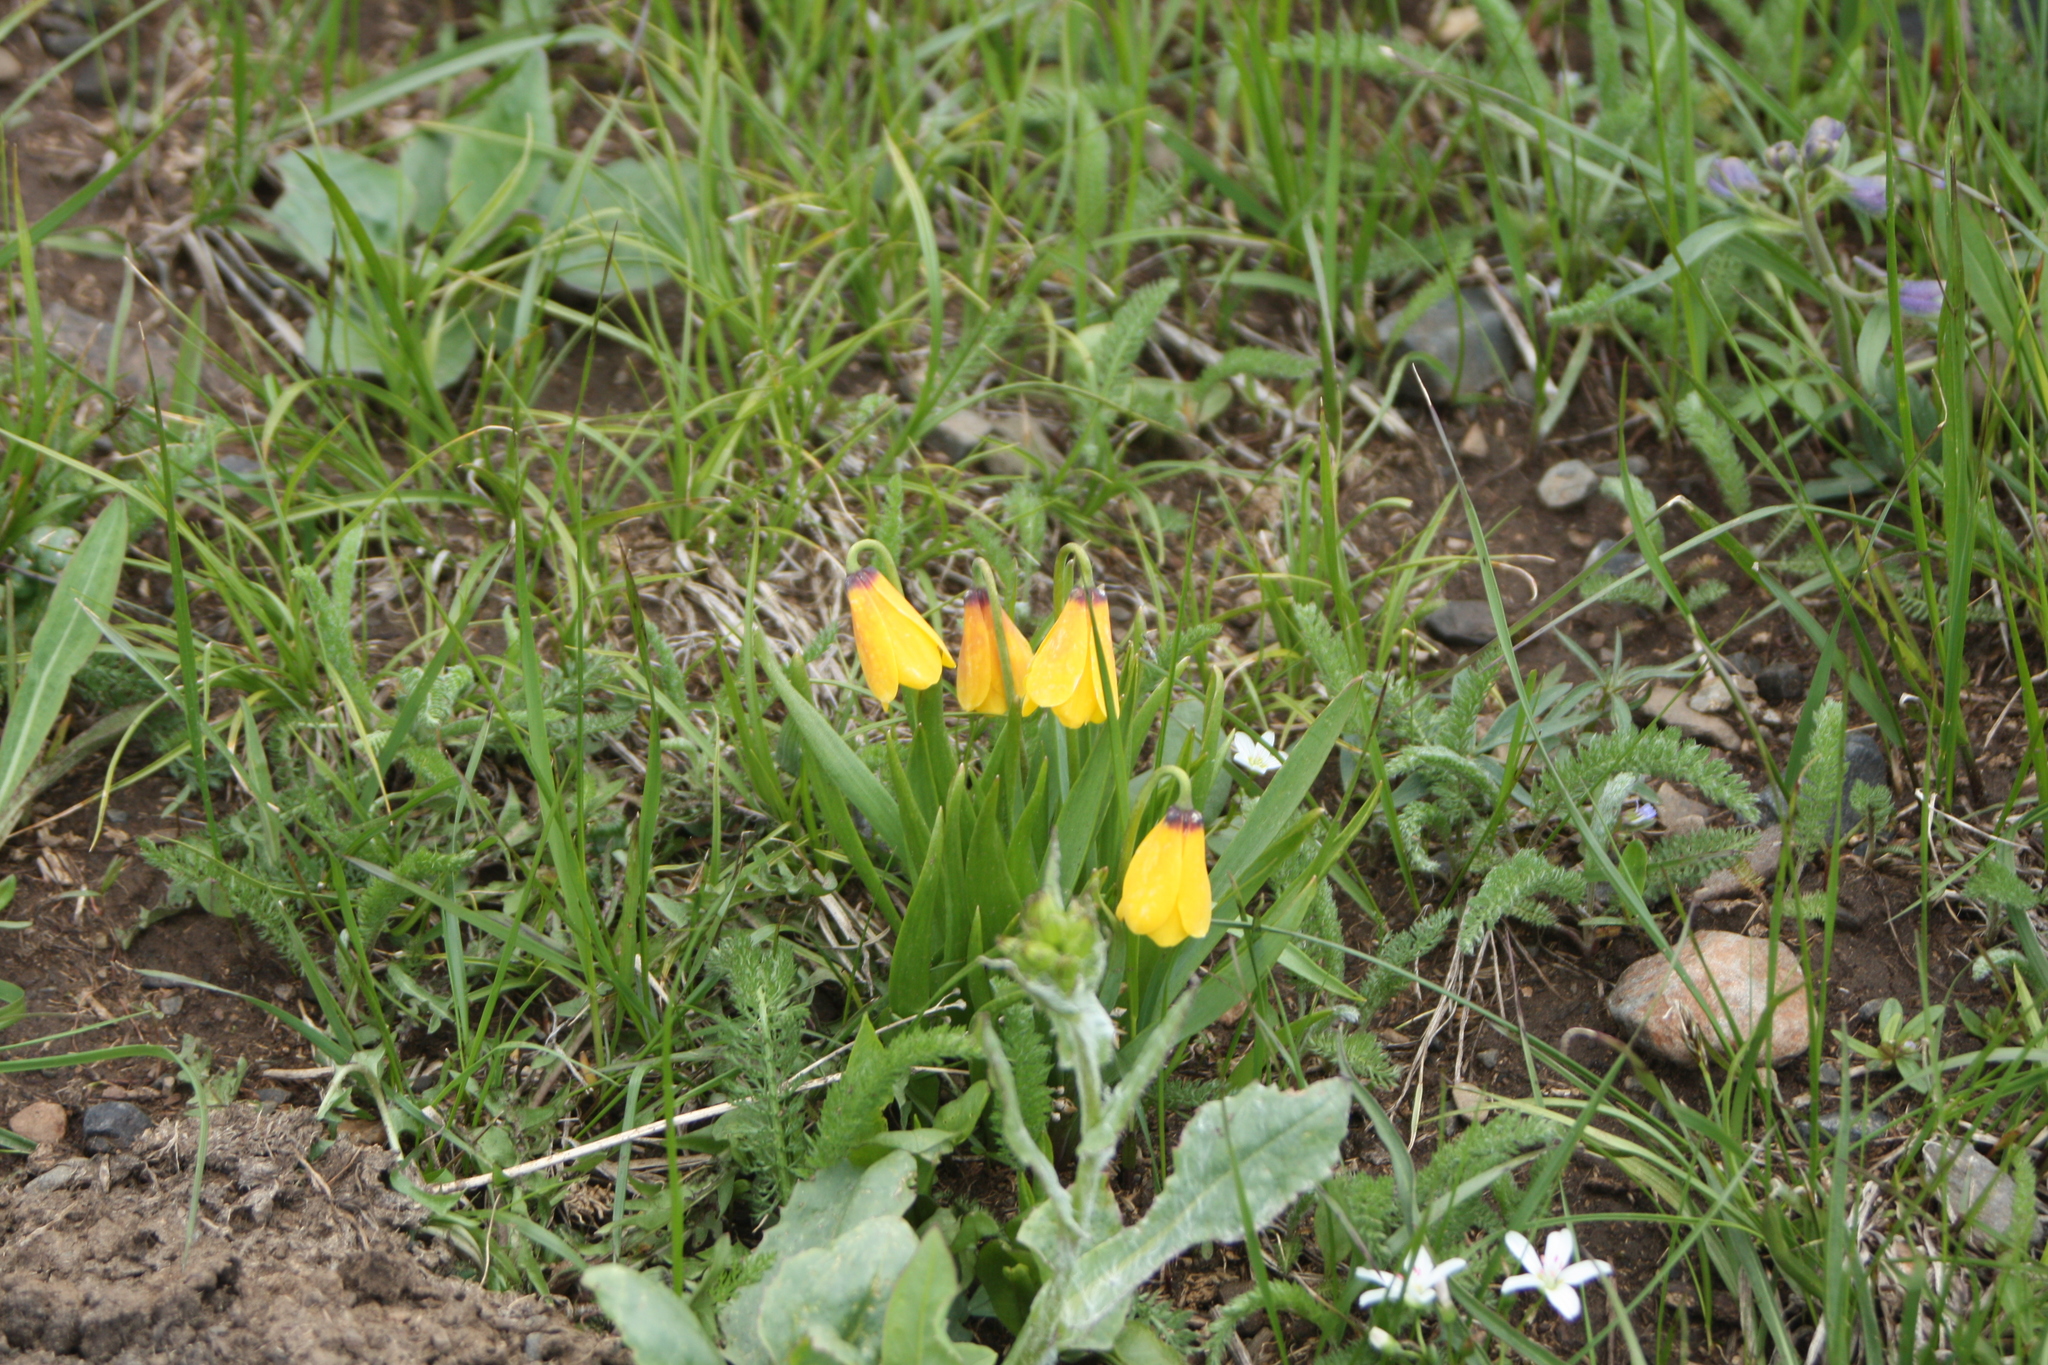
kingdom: Plantae
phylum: Tracheophyta
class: Liliopsida
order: Liliales
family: Liliaceae
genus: Fritillaria
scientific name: Fritillaria pudica
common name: Yellow fritillary
